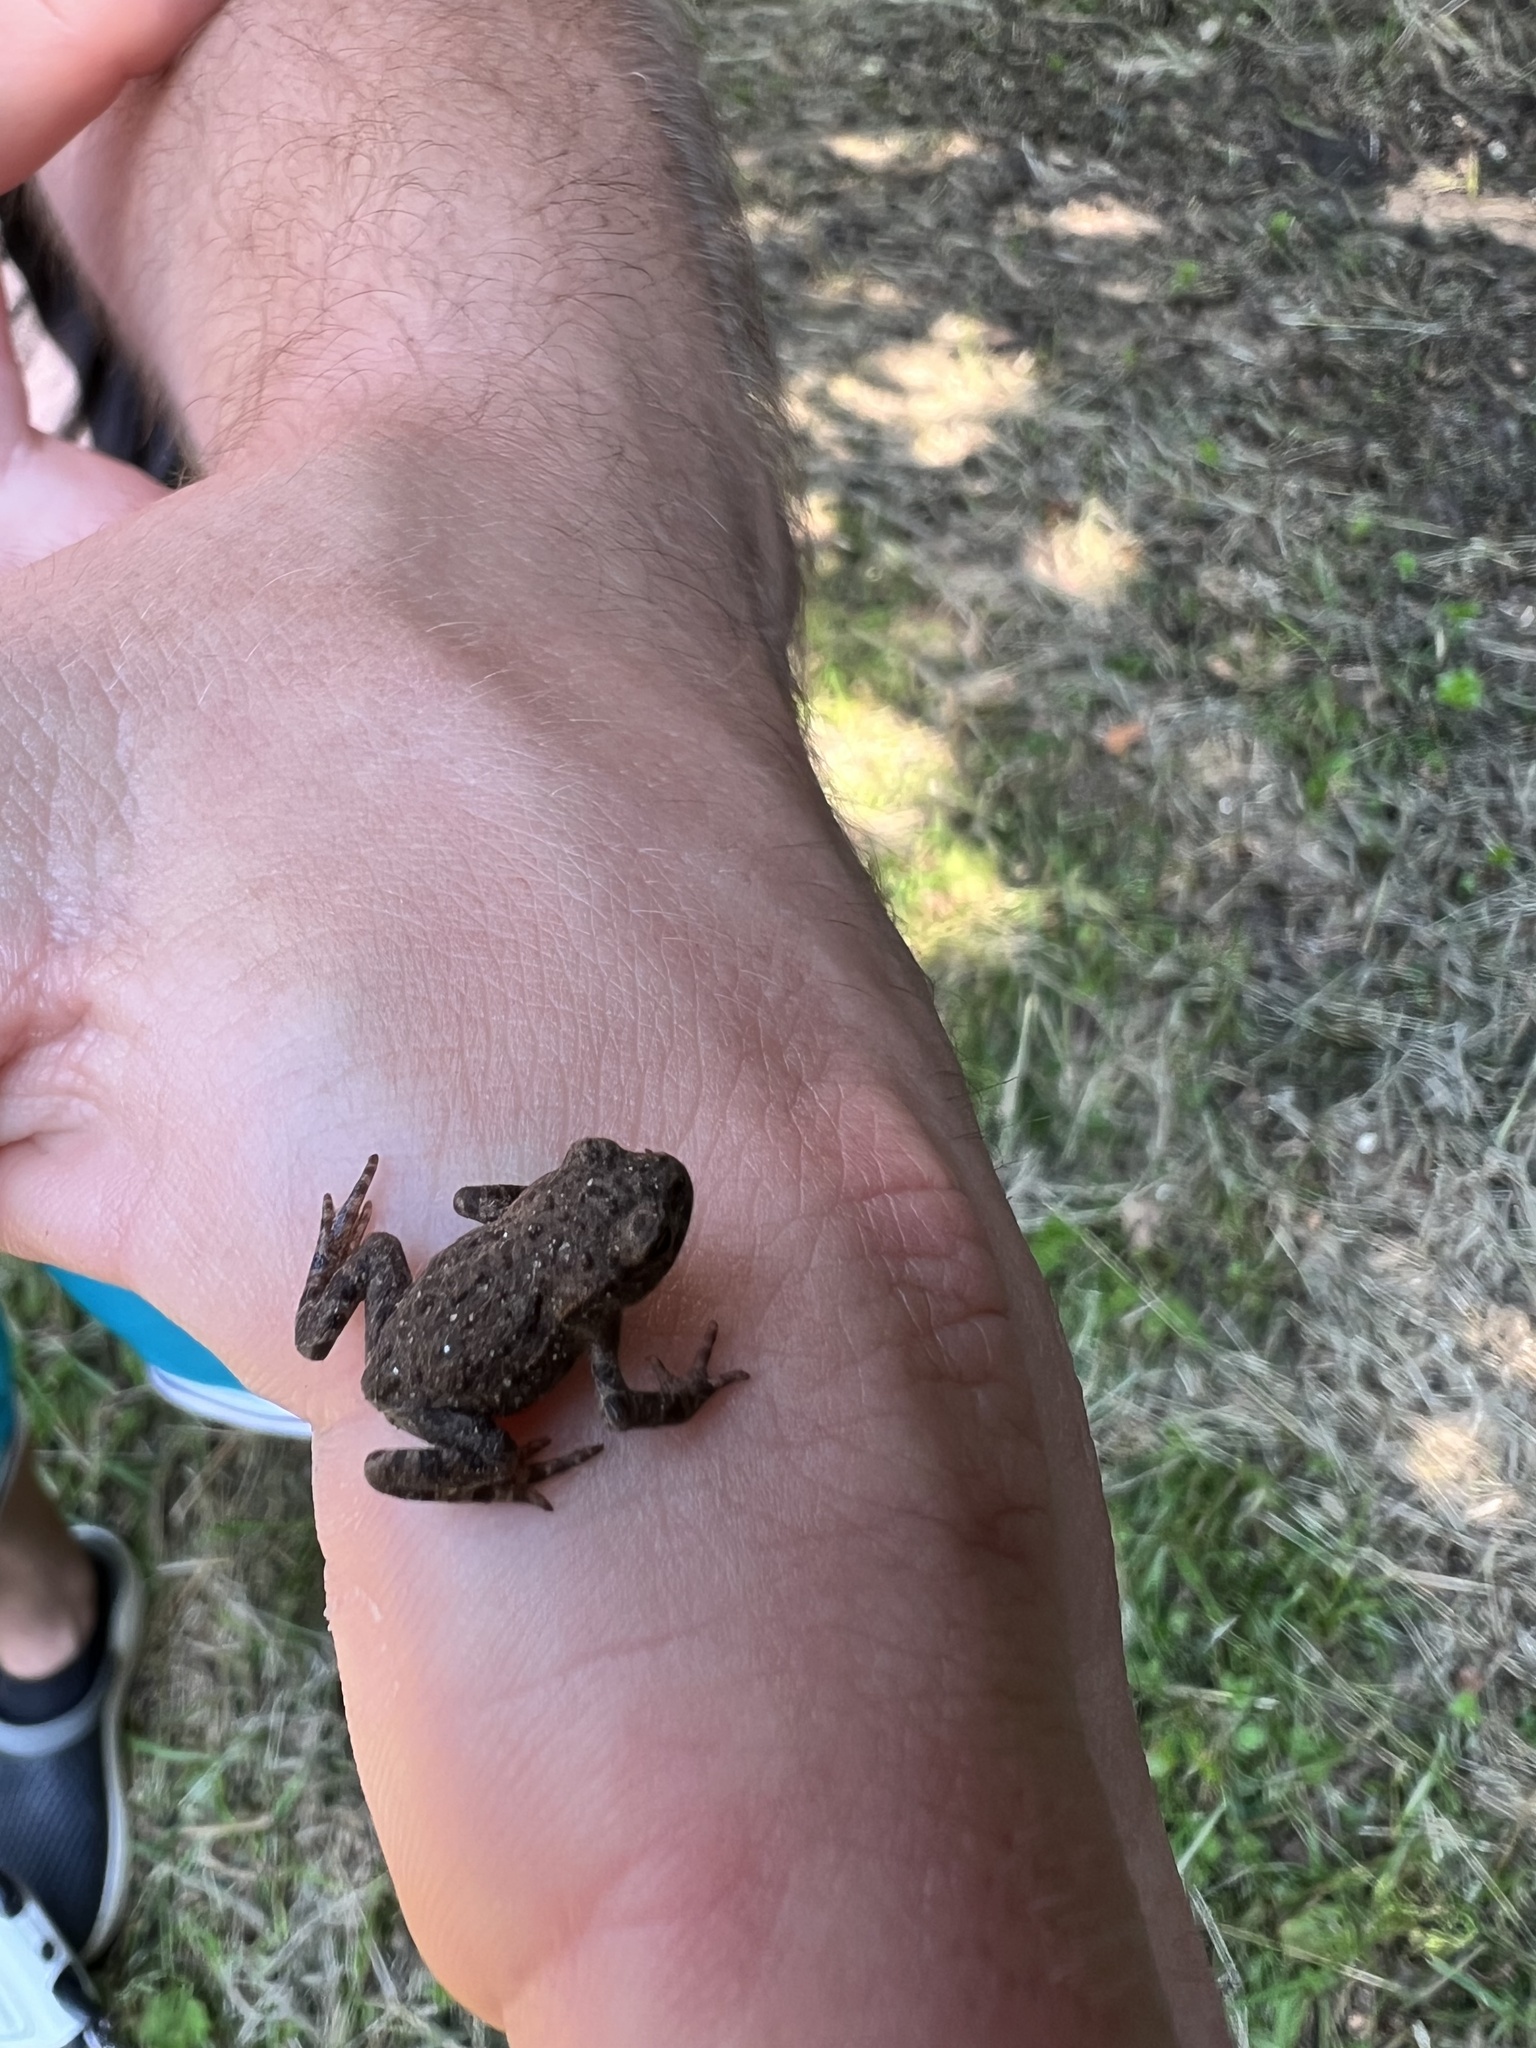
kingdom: Animalia
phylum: Chordata
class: Amphibia
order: Anura
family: Bufonidae
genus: Bufo
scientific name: Bufo bufo
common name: Common toad
